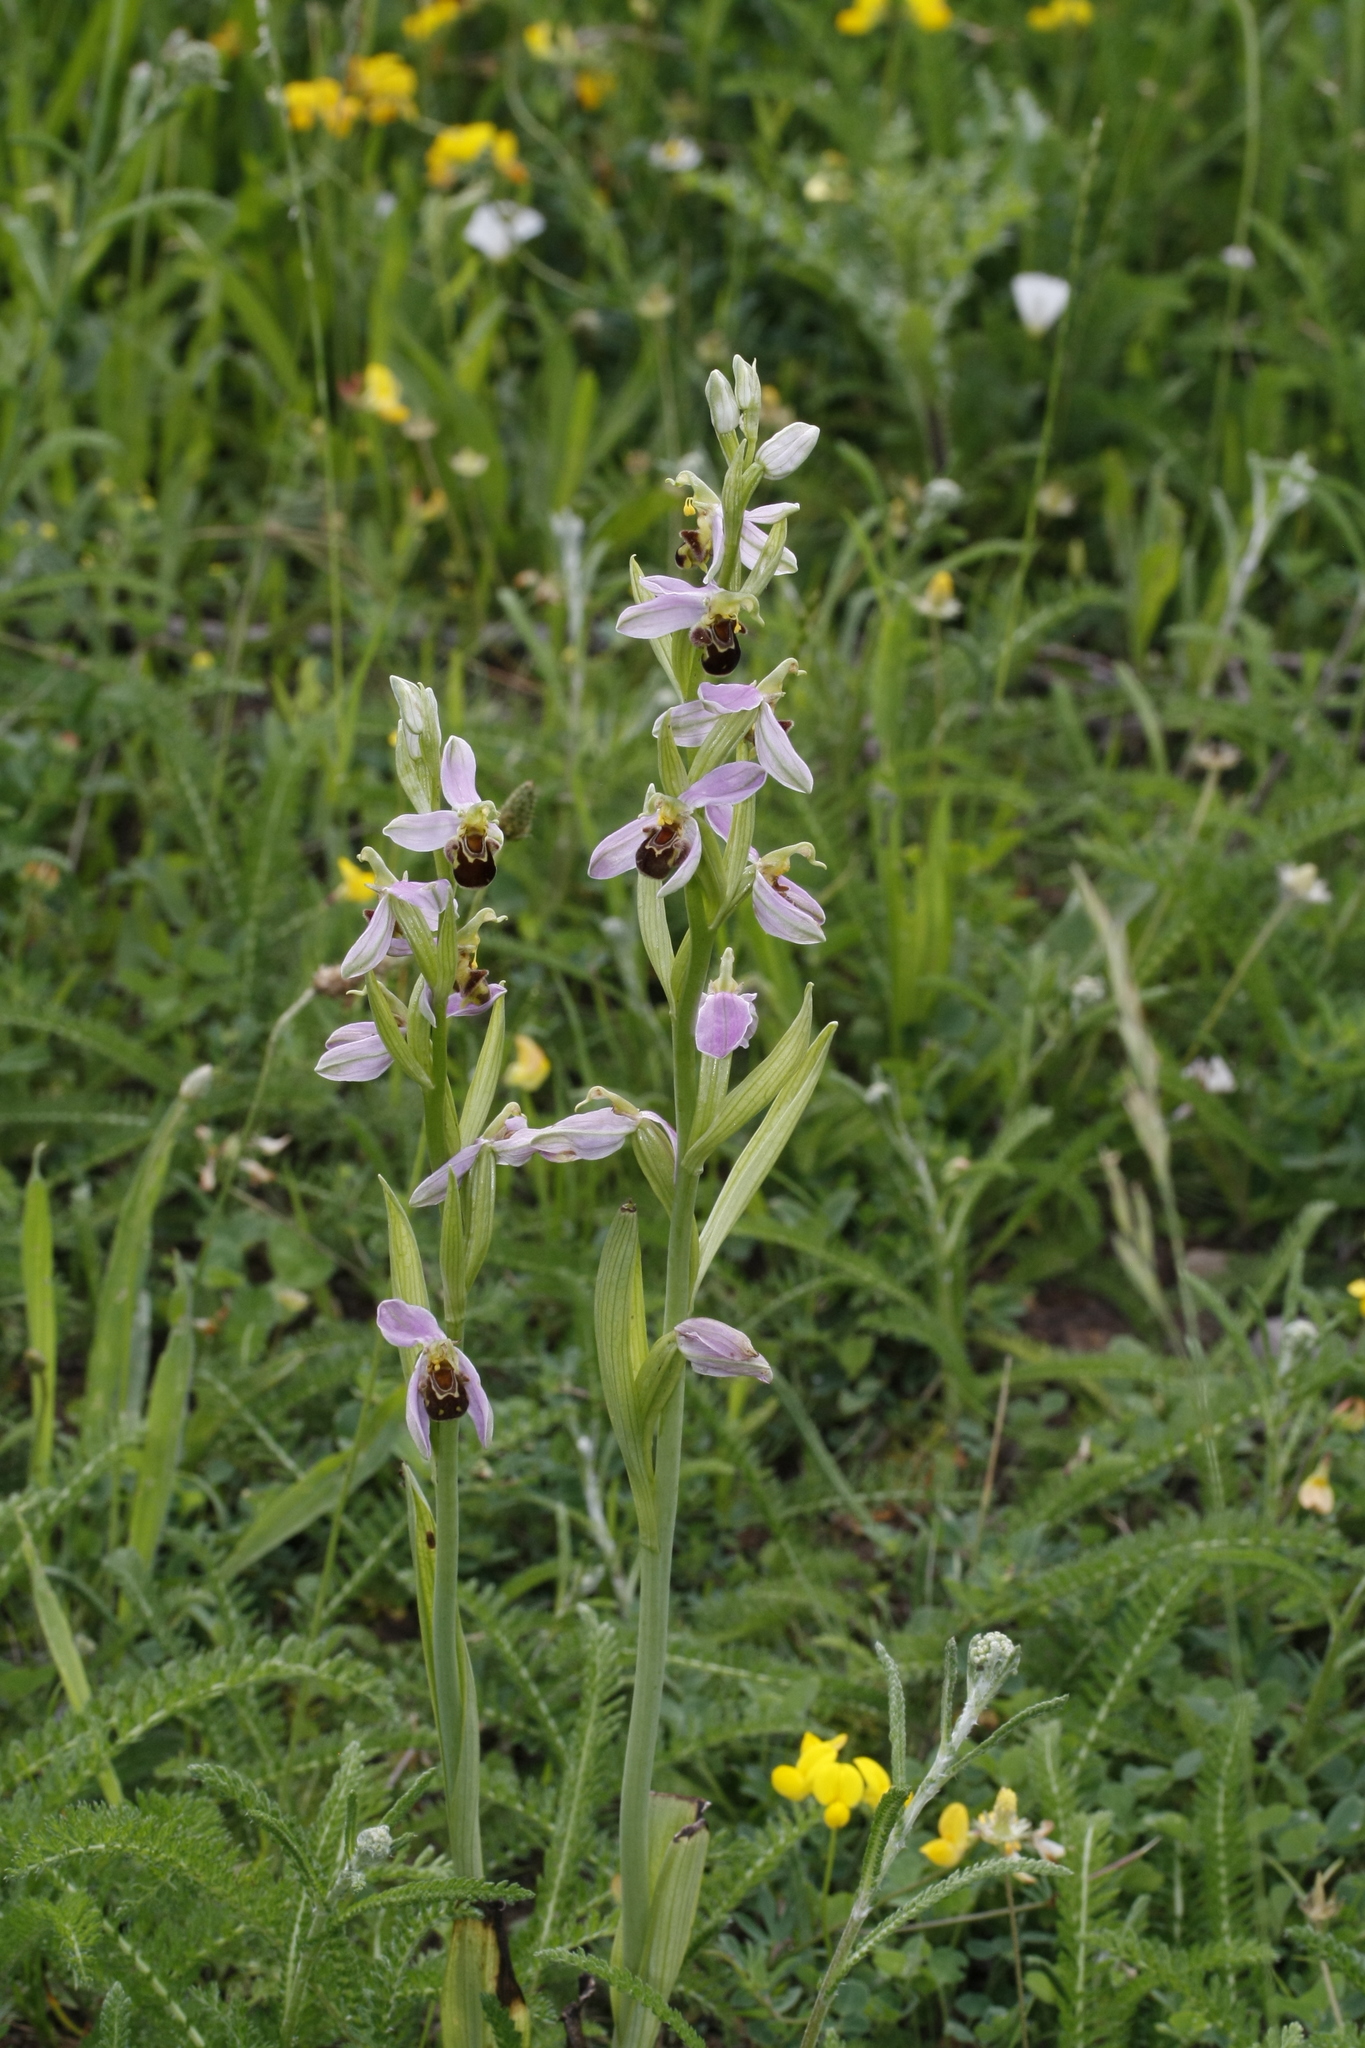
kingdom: Plantae
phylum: Tracheophyta
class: Liliopsida
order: Asparagales
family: Orchidaceae
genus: Ophrys
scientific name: Ophrys apifera
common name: Bee orchid
